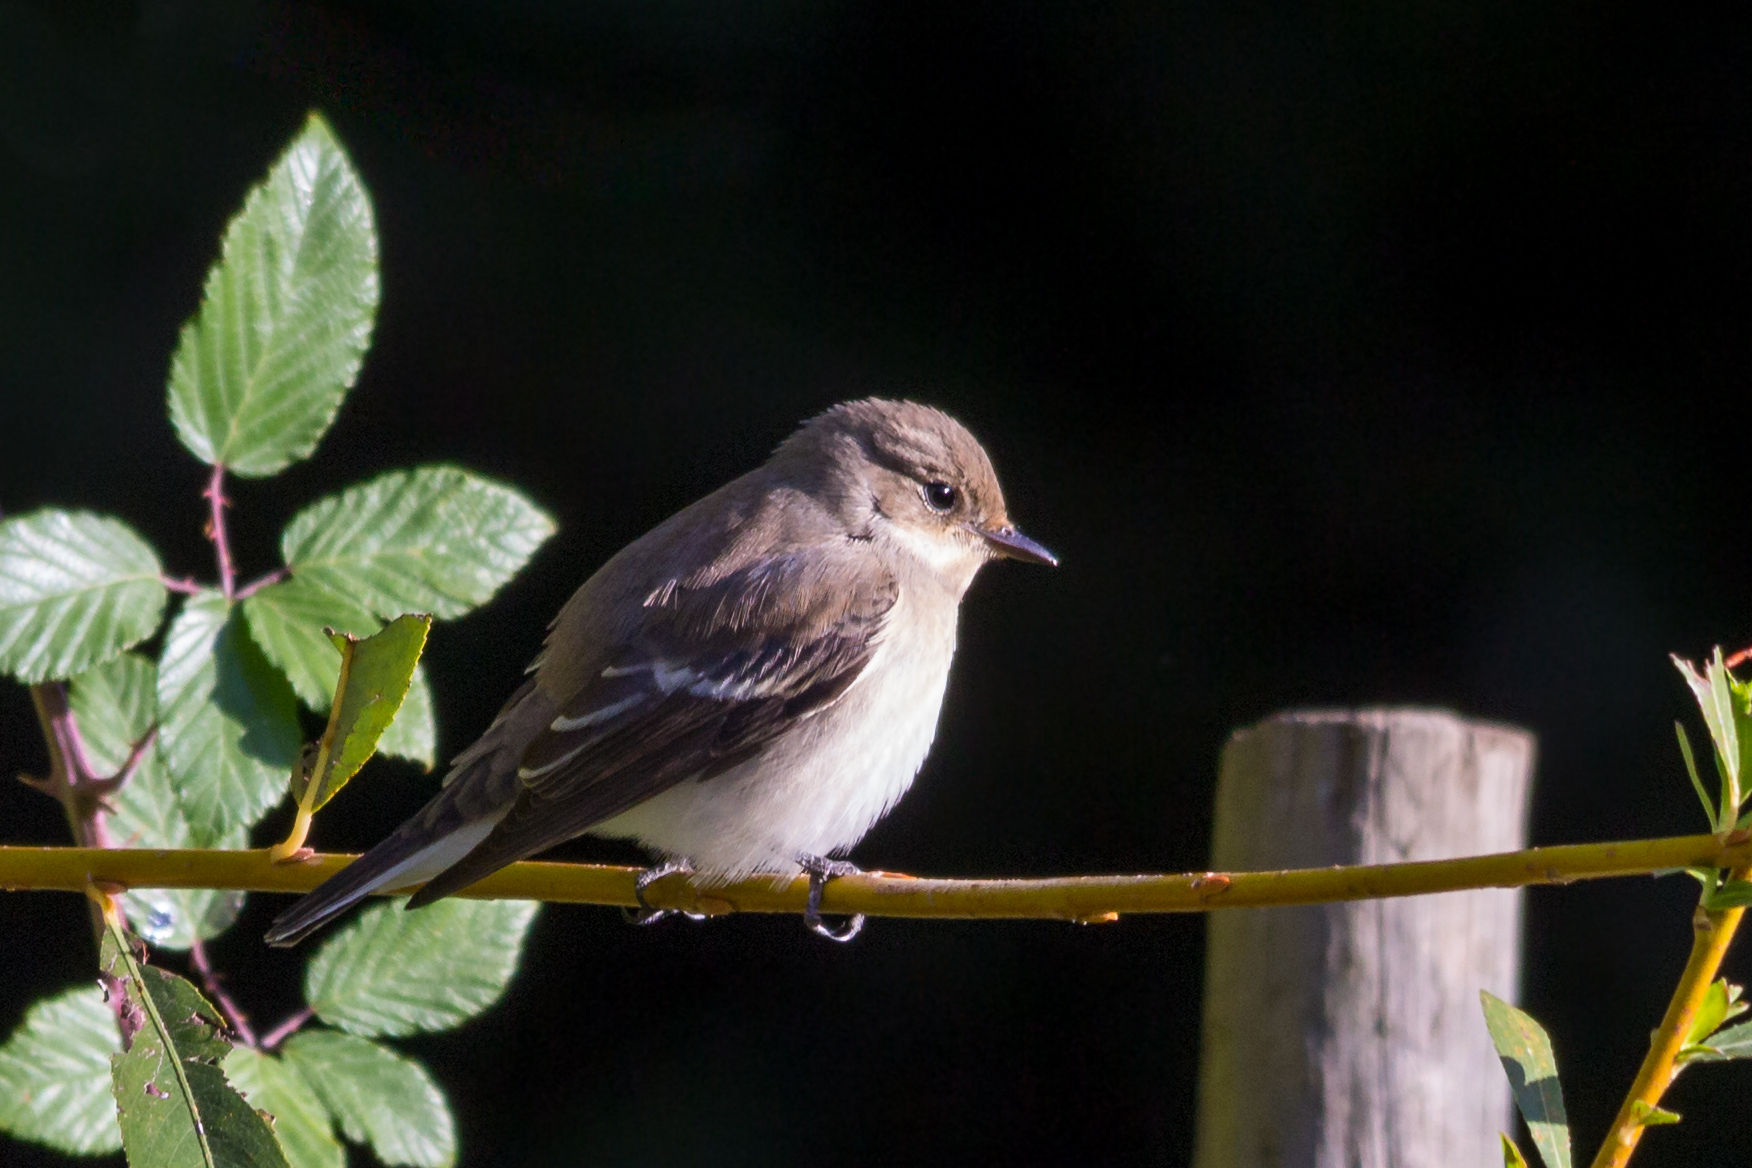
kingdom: Animalia
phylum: Chordata
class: Aves
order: Passeriformes
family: Muscicapidae
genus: Ficedula
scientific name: Ficedula hypoleuca
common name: European pied flycatcher
